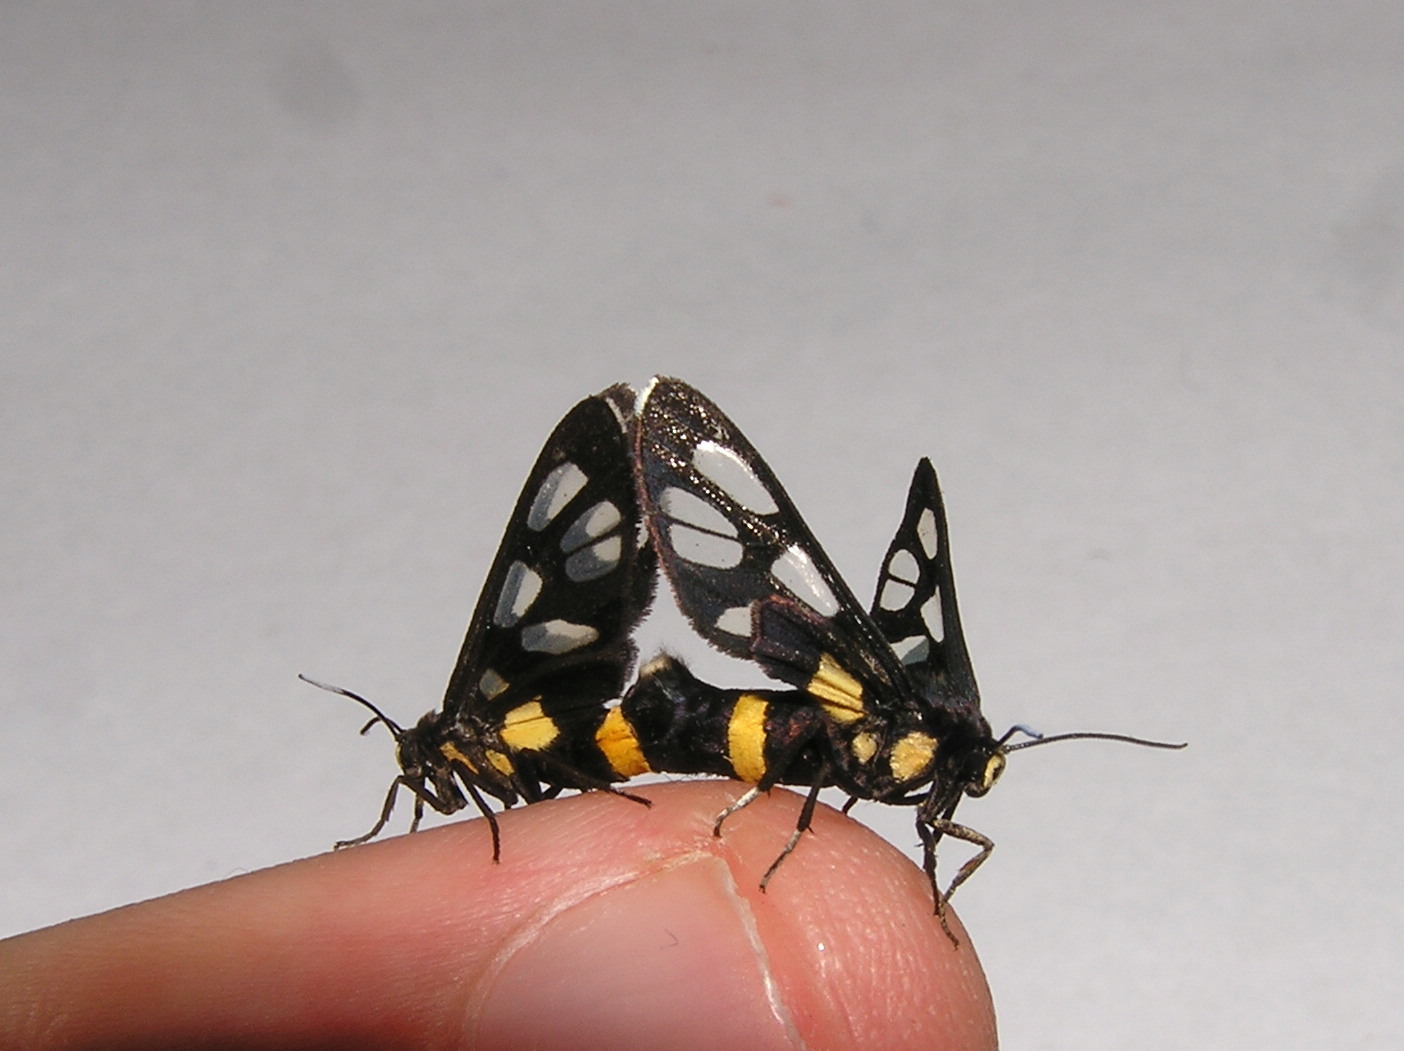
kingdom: Animalia
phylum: Arthropoda
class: Insecta
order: Lepidoptera
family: Erebidae
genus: Amata
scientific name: Amata sperbius
